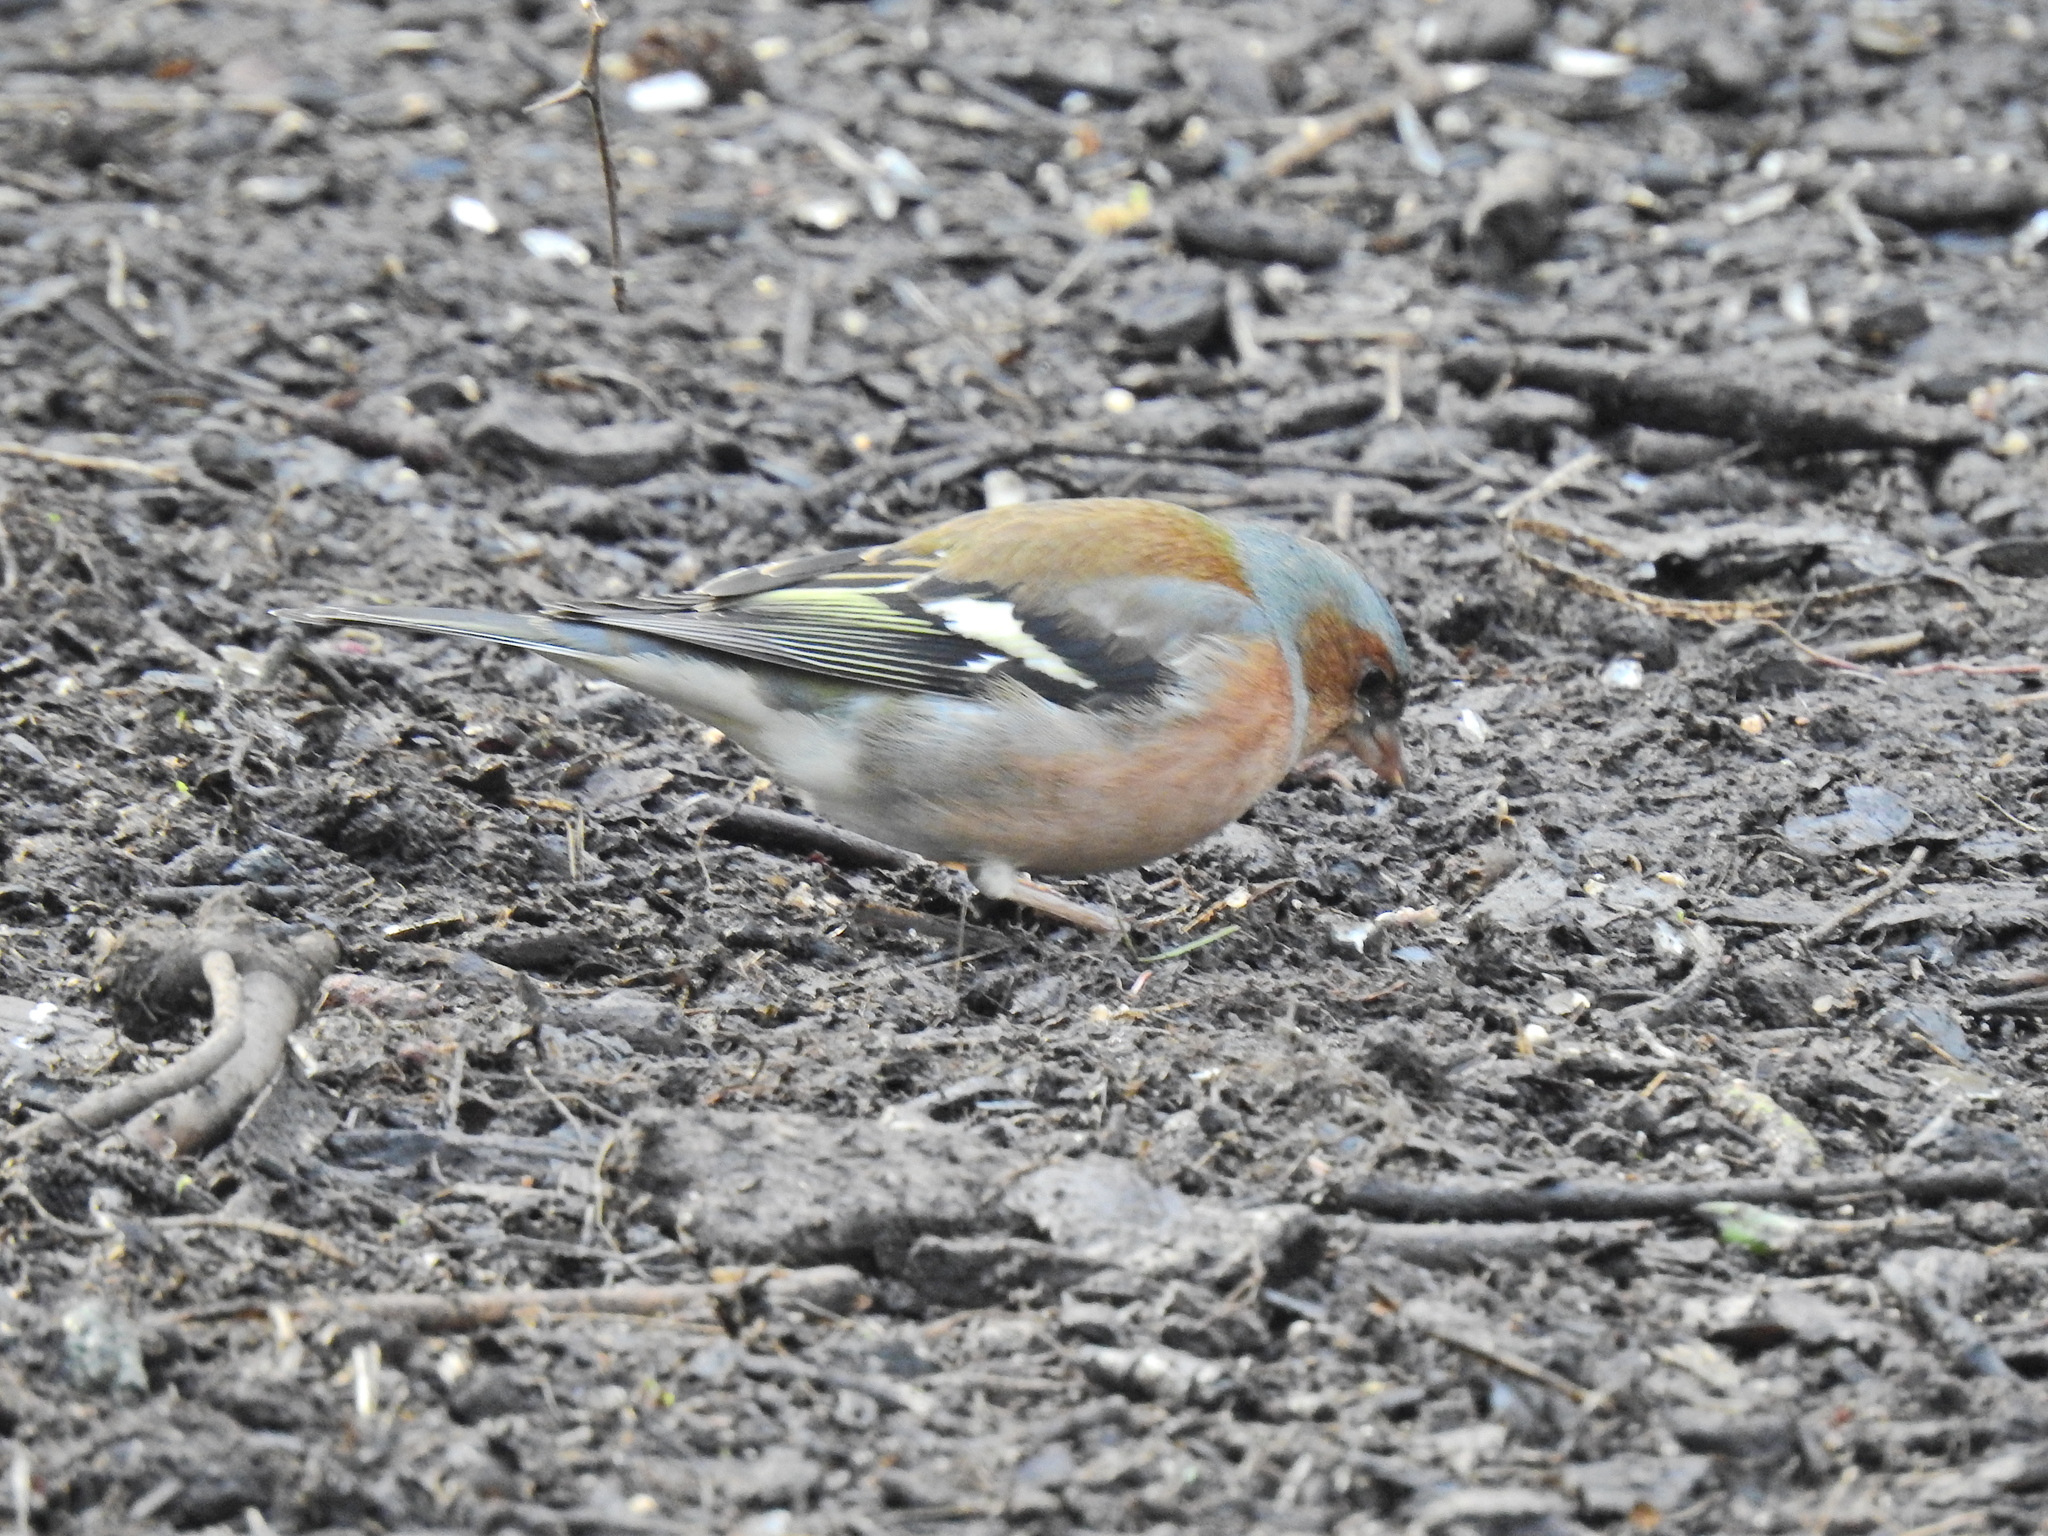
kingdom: Animalia
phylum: Chordata
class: Aves
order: Passeriformes
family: Fringillidae
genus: Fringilla
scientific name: Fringilla coelebs
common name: Common chaffinch
